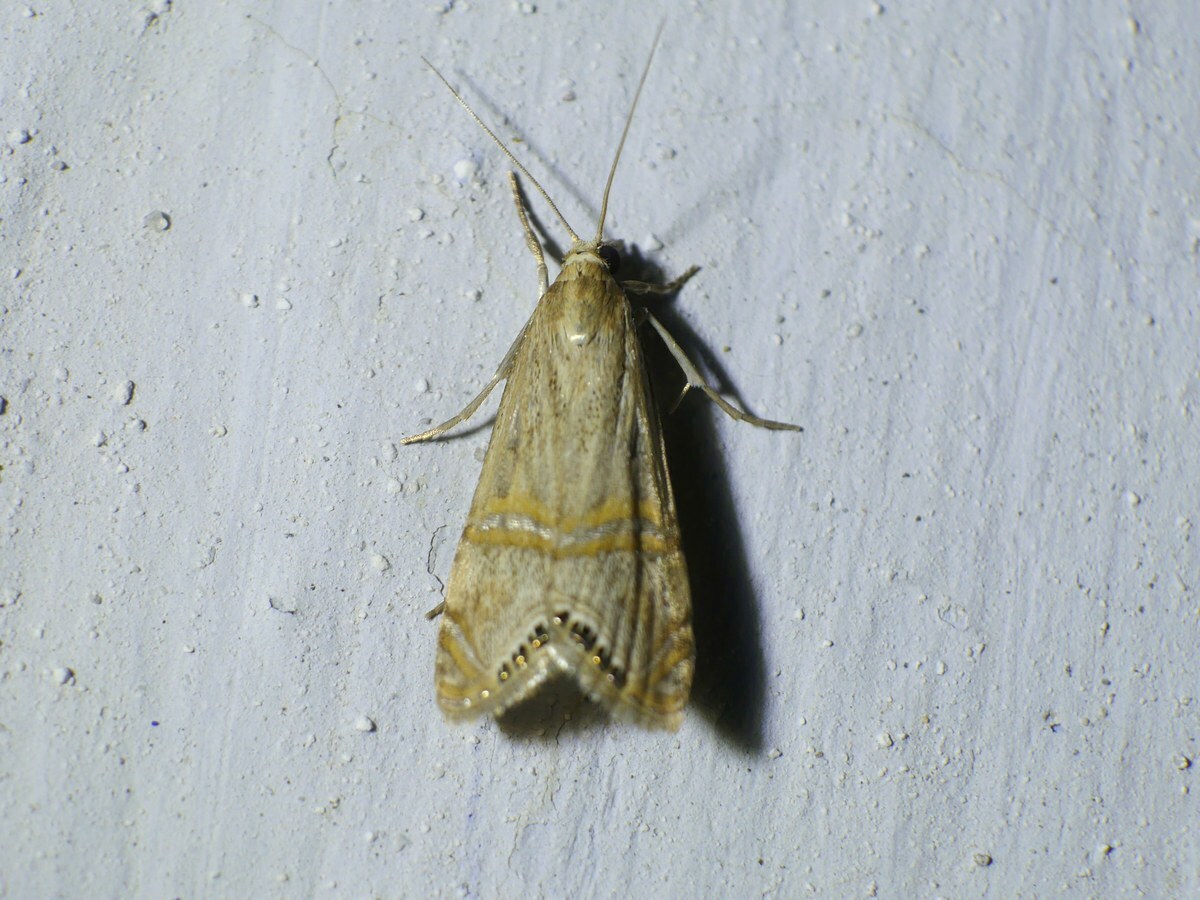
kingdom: Animalia
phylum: Arthropoda
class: Insecta
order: Lepidoptera
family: Crambidae
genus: Euchromius
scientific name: Euchromius ocellea
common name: Necklace veneer moth
